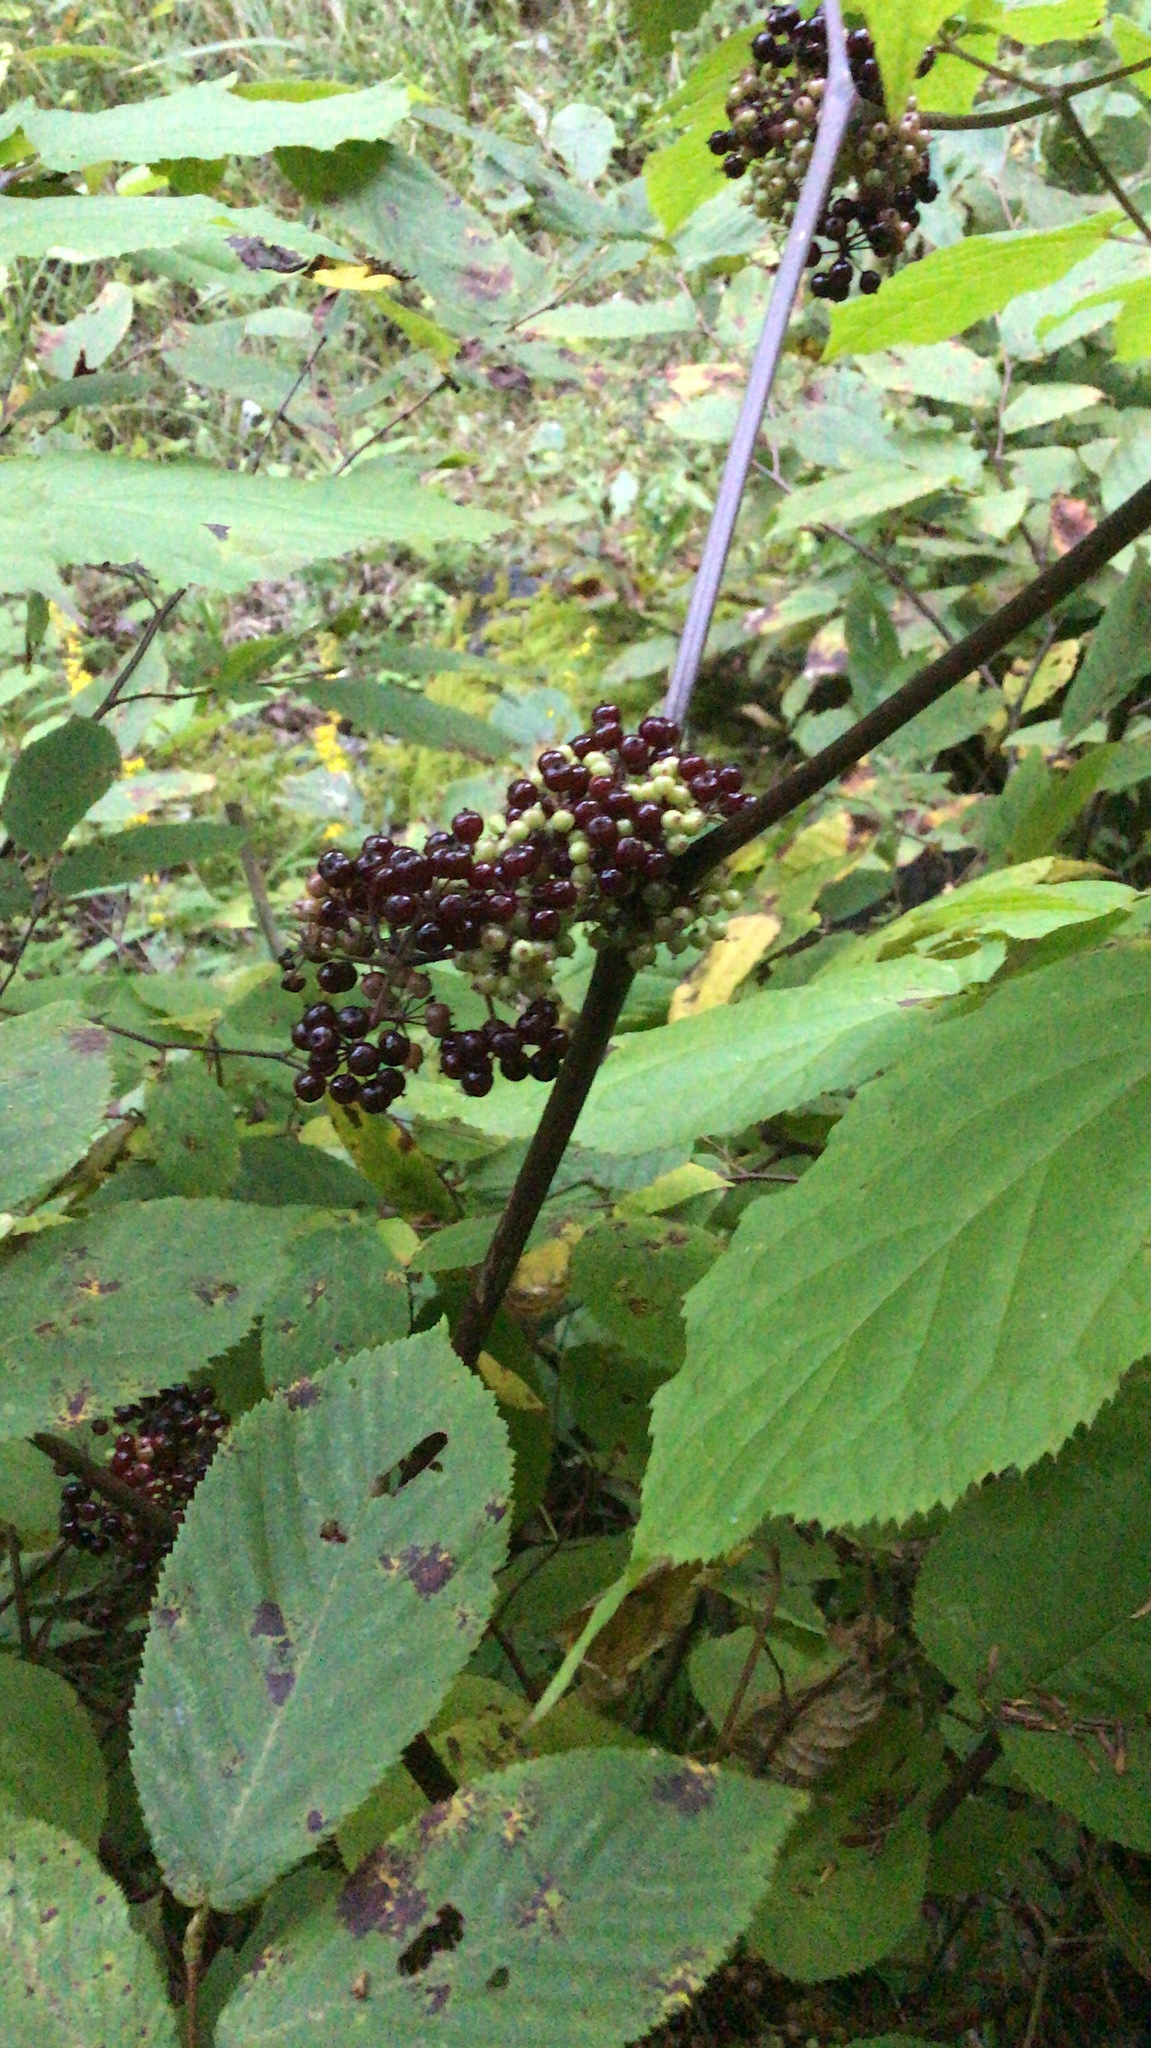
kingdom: Plantae
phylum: Tracheophyta
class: Magnoliopsida
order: Apiales
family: Araliaceae
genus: Aralia
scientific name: Aralia racemosa
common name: American-spikenard
